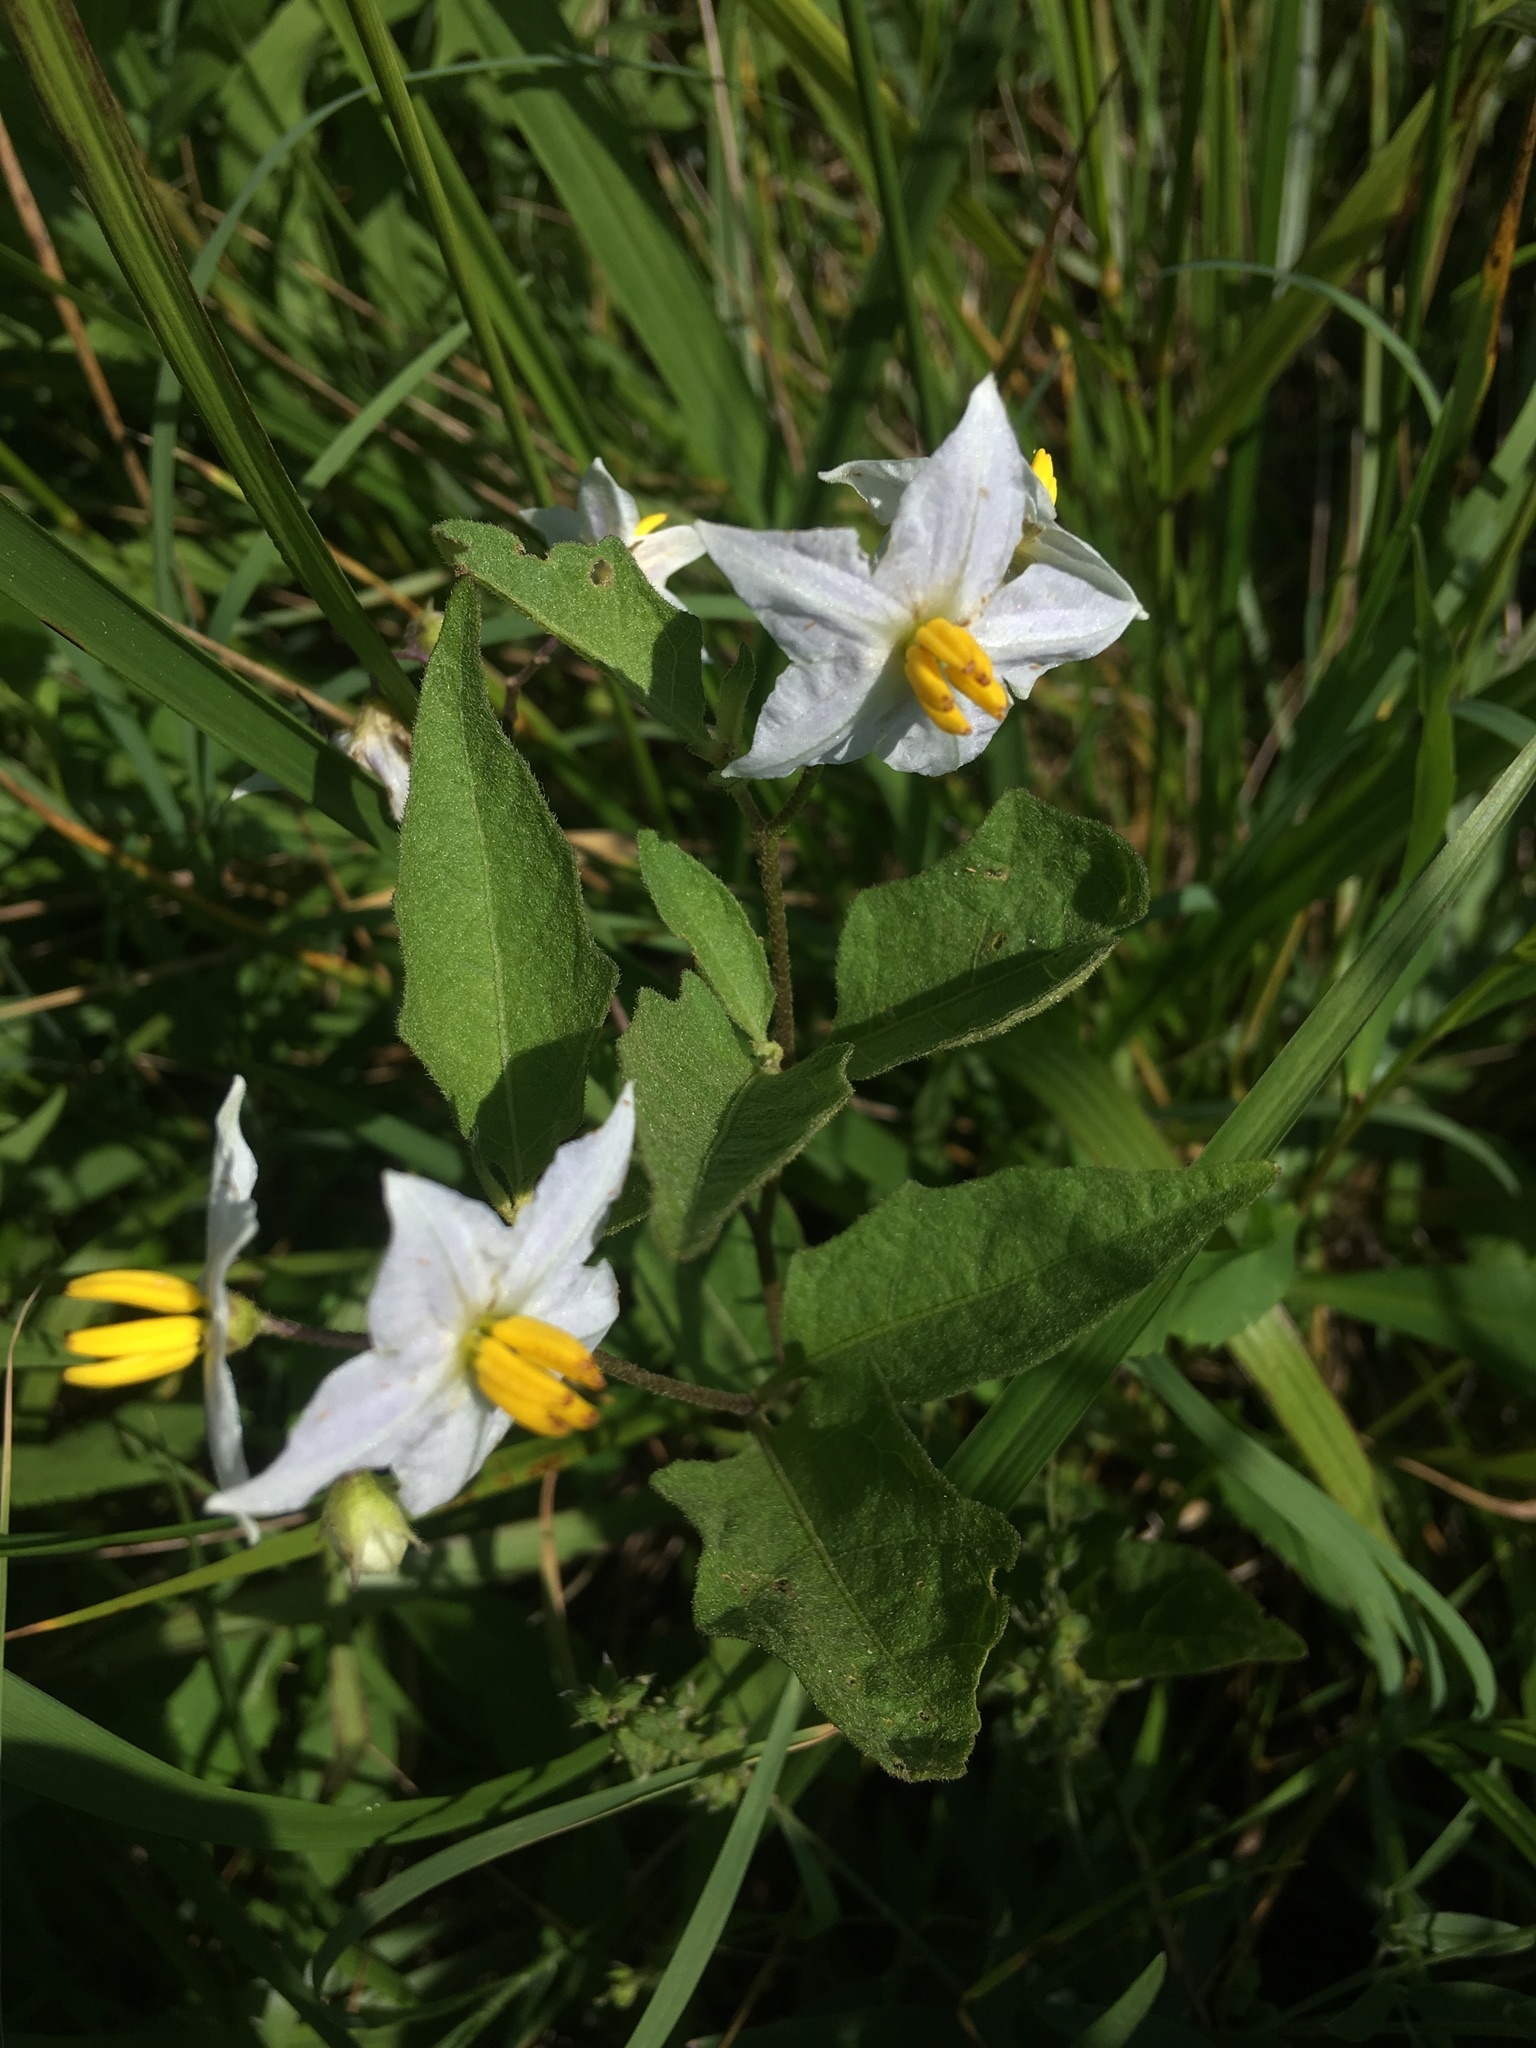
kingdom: Plantae
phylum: Tracheophyta
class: Magnoliopsida
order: Solanales
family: Solanaceae
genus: Solanum
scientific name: Solanum carolinense
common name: Horse-nettle
